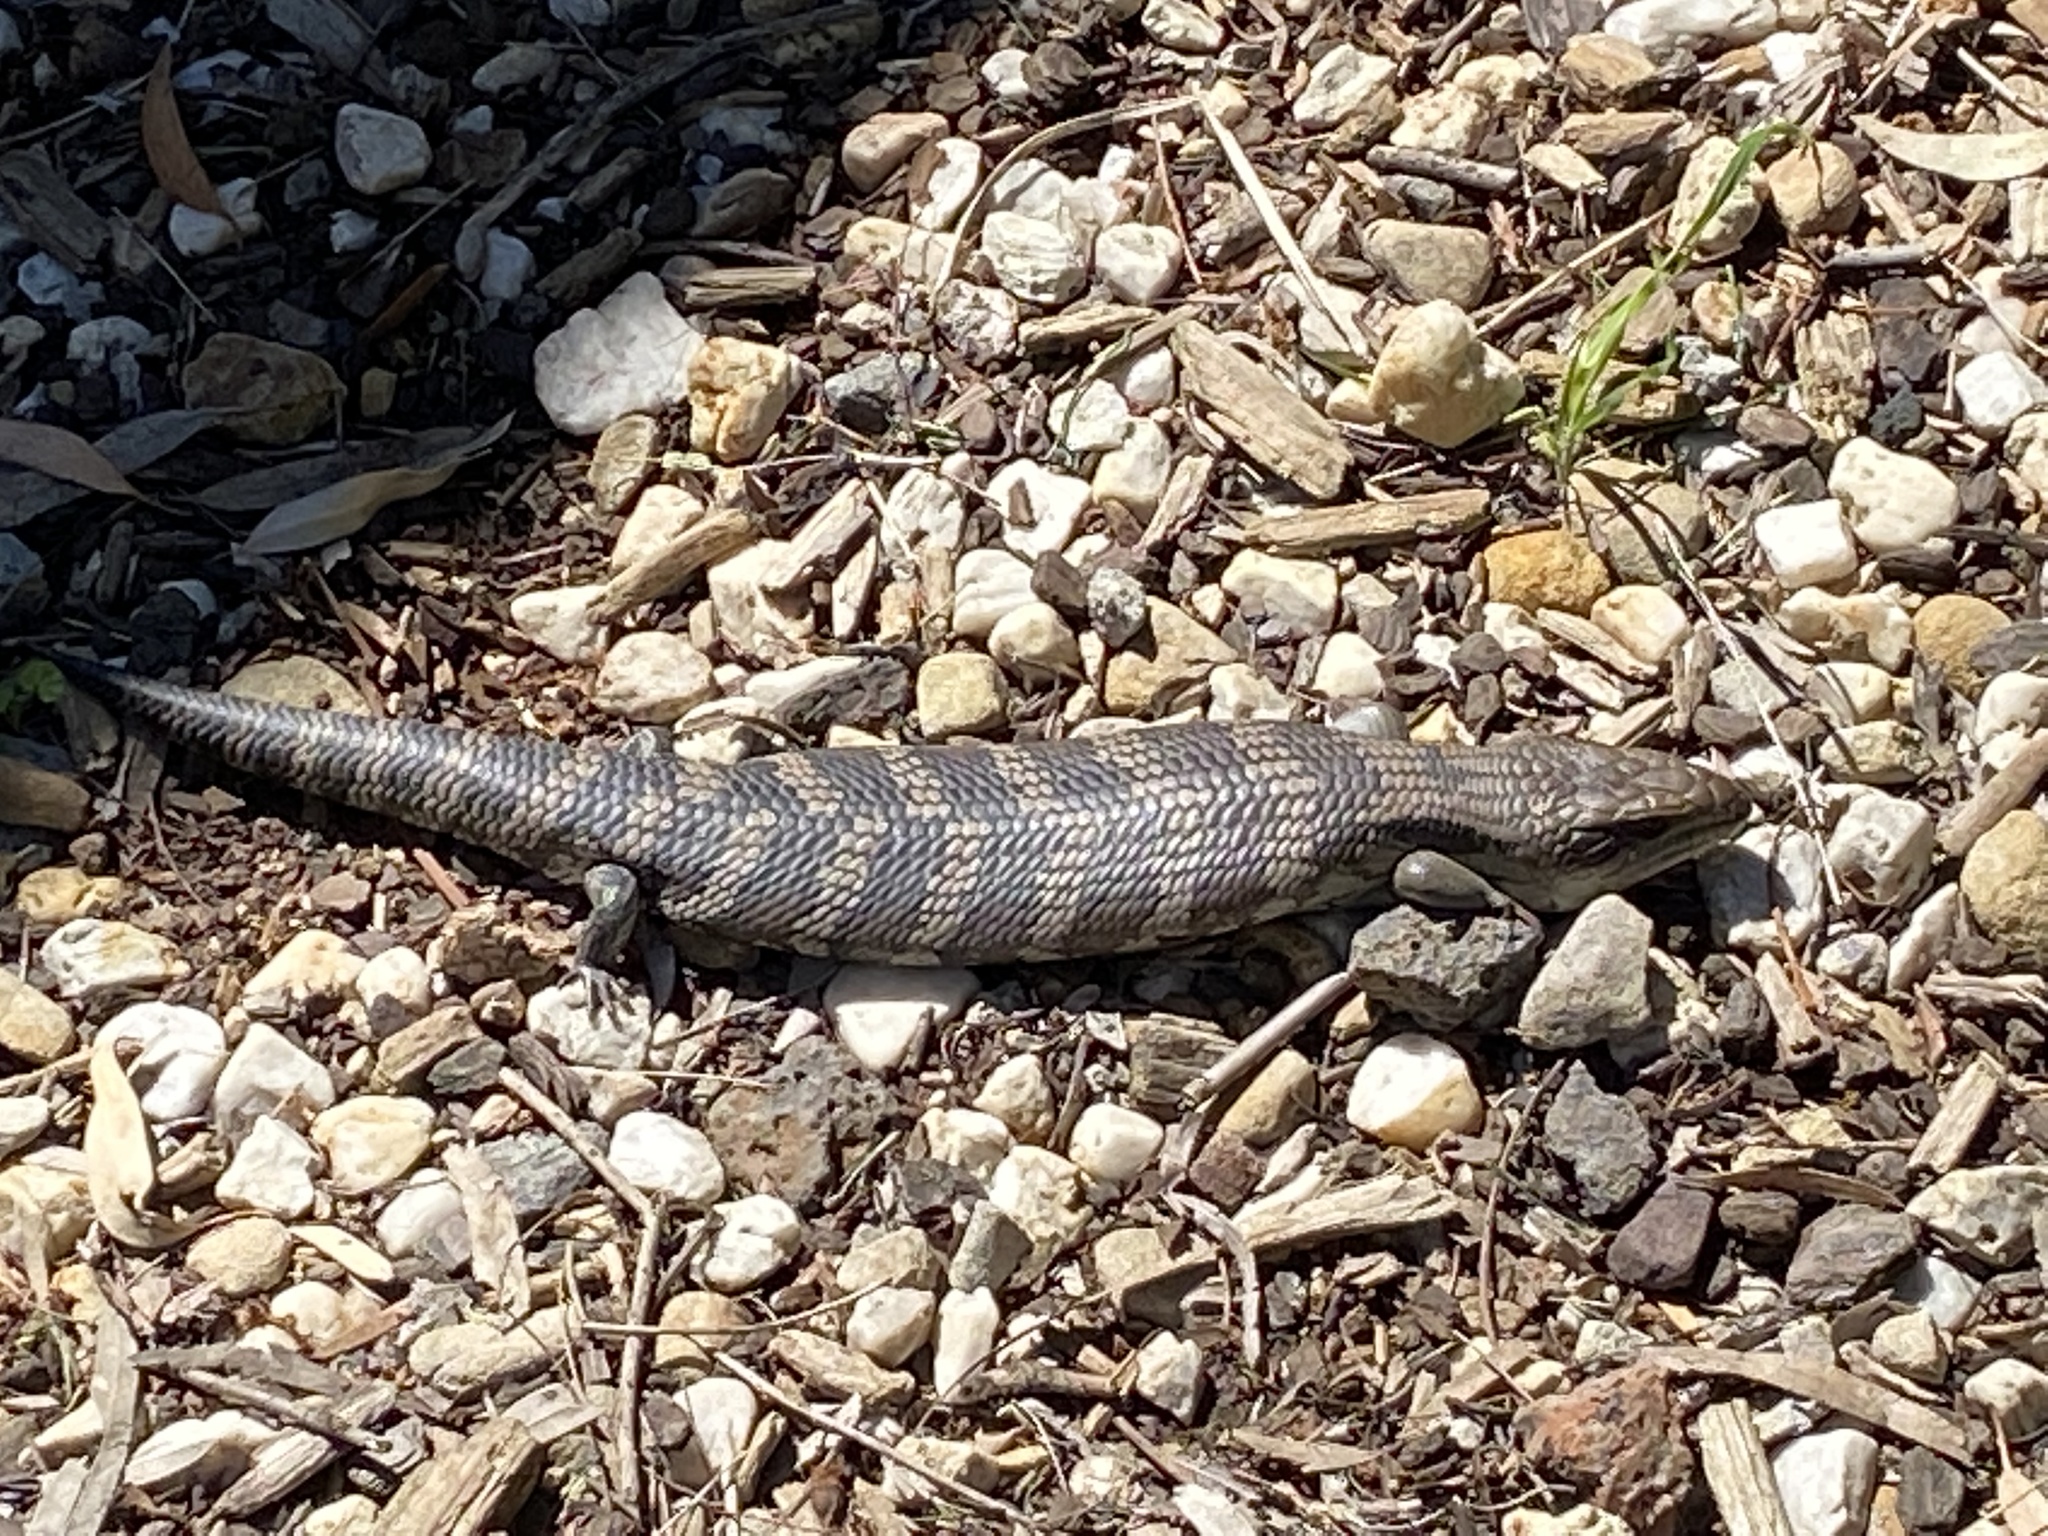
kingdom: Animalia
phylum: Chordata
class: Squamata
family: Scincidae
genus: Tiliqua
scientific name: Tiliqua scincoides
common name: Common bluetongue
